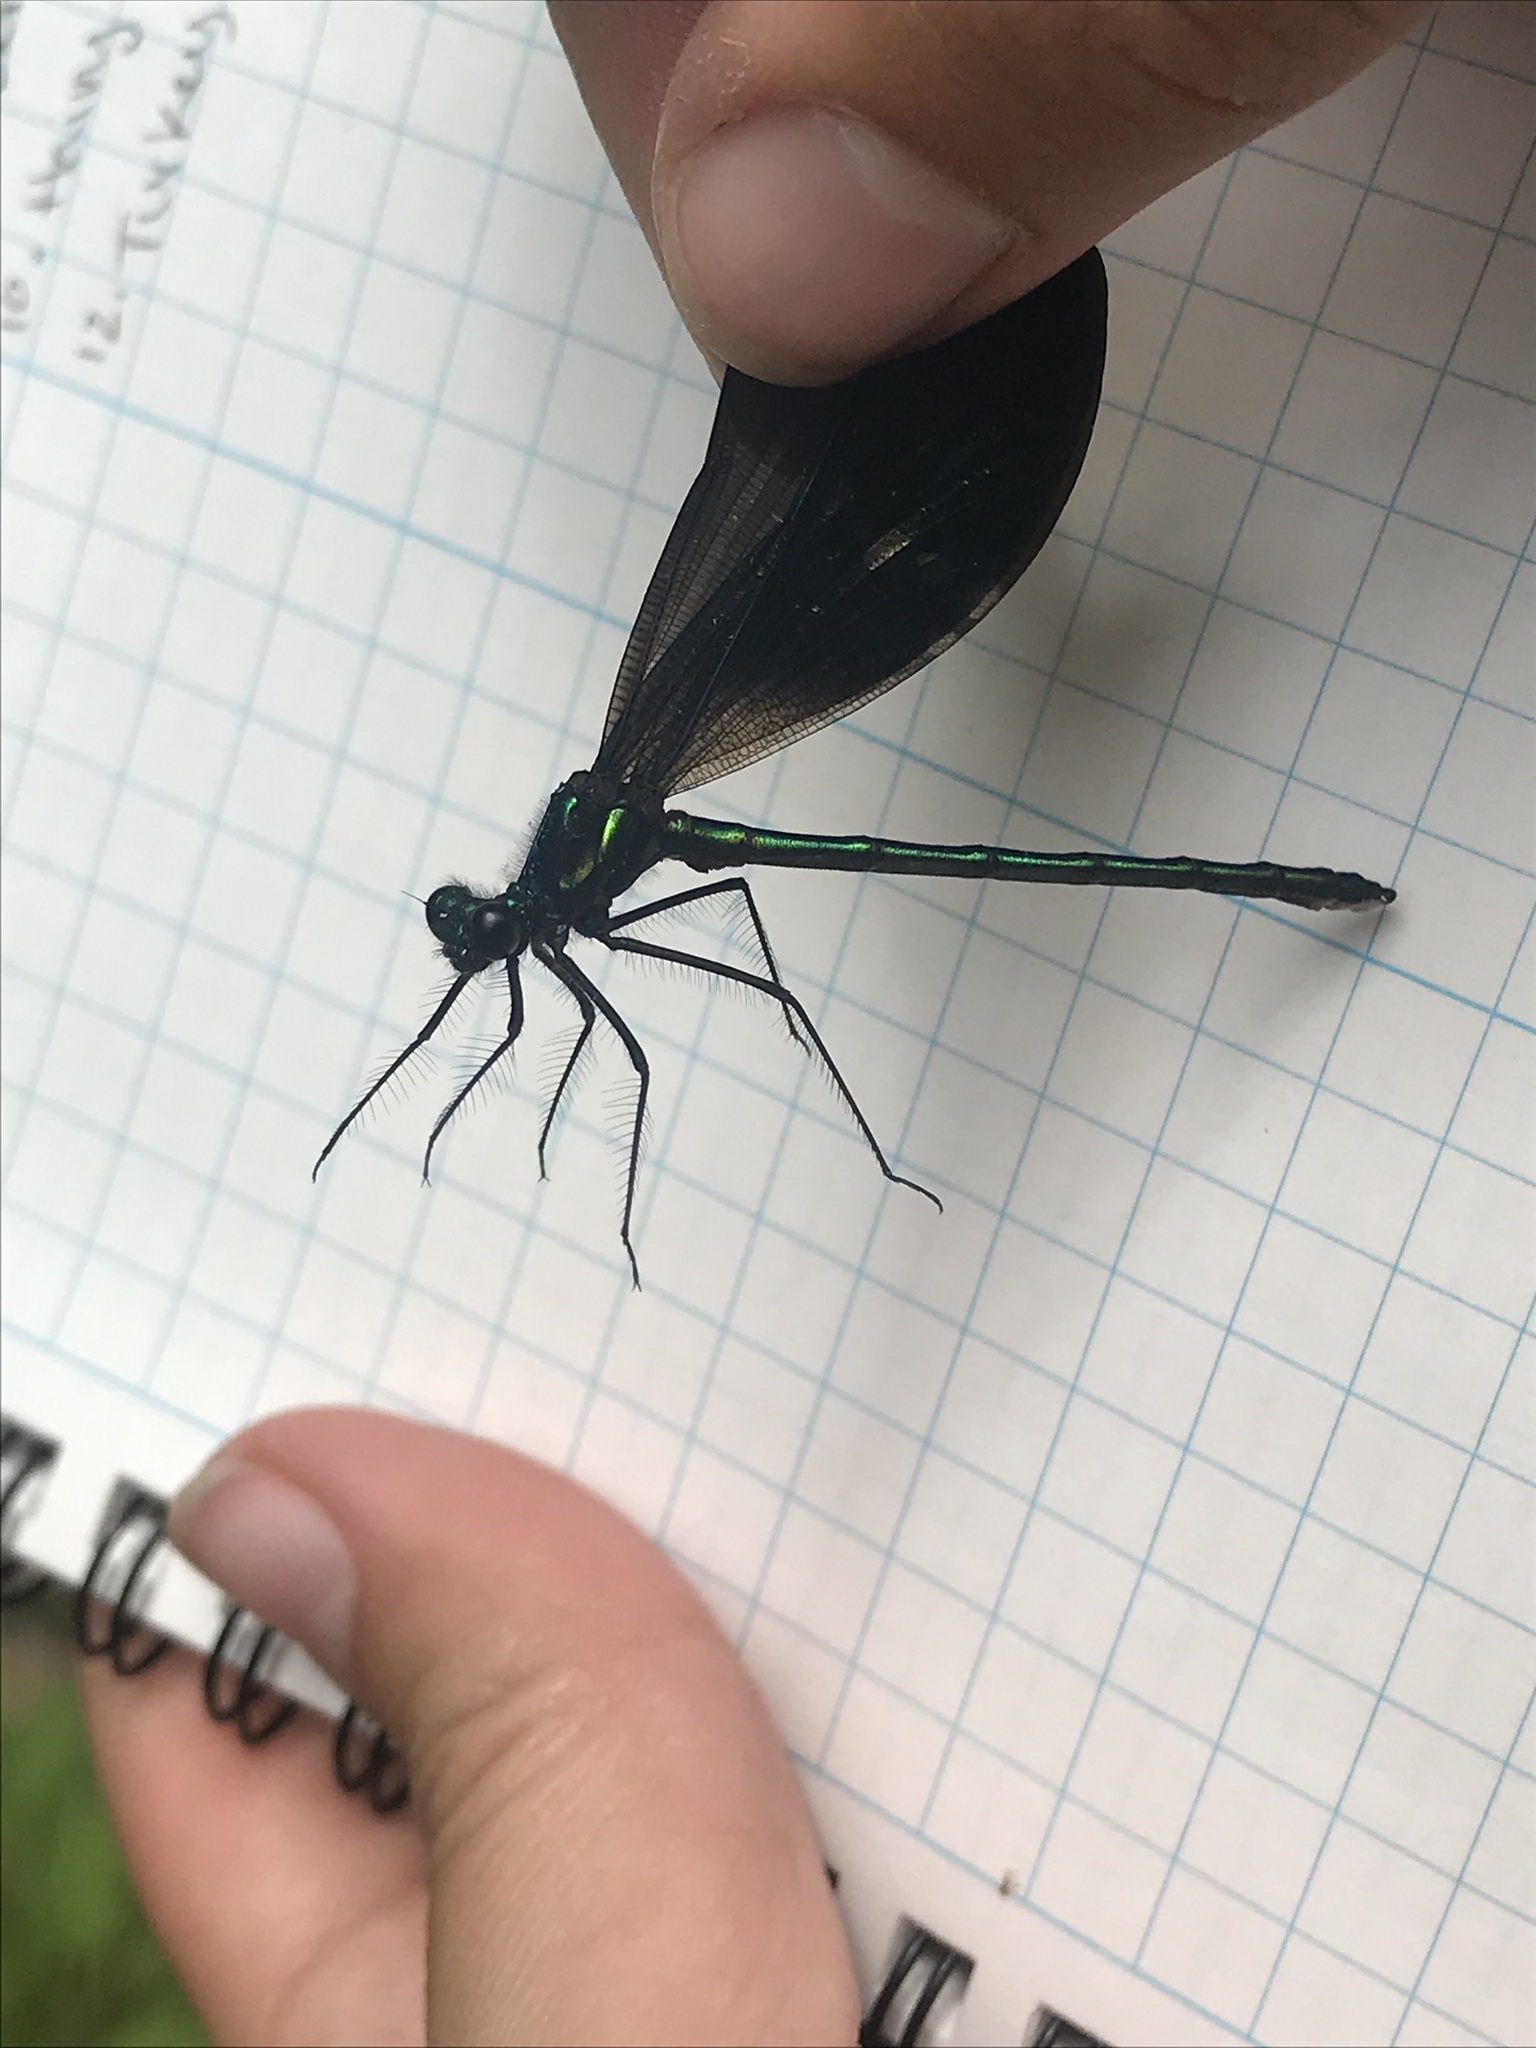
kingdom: Animalia
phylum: Arthropoda
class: Insecta
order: Odonata
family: Calopterygidae
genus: Calopteryx
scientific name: Calopteryx maculata
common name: Ebony jewelwing
